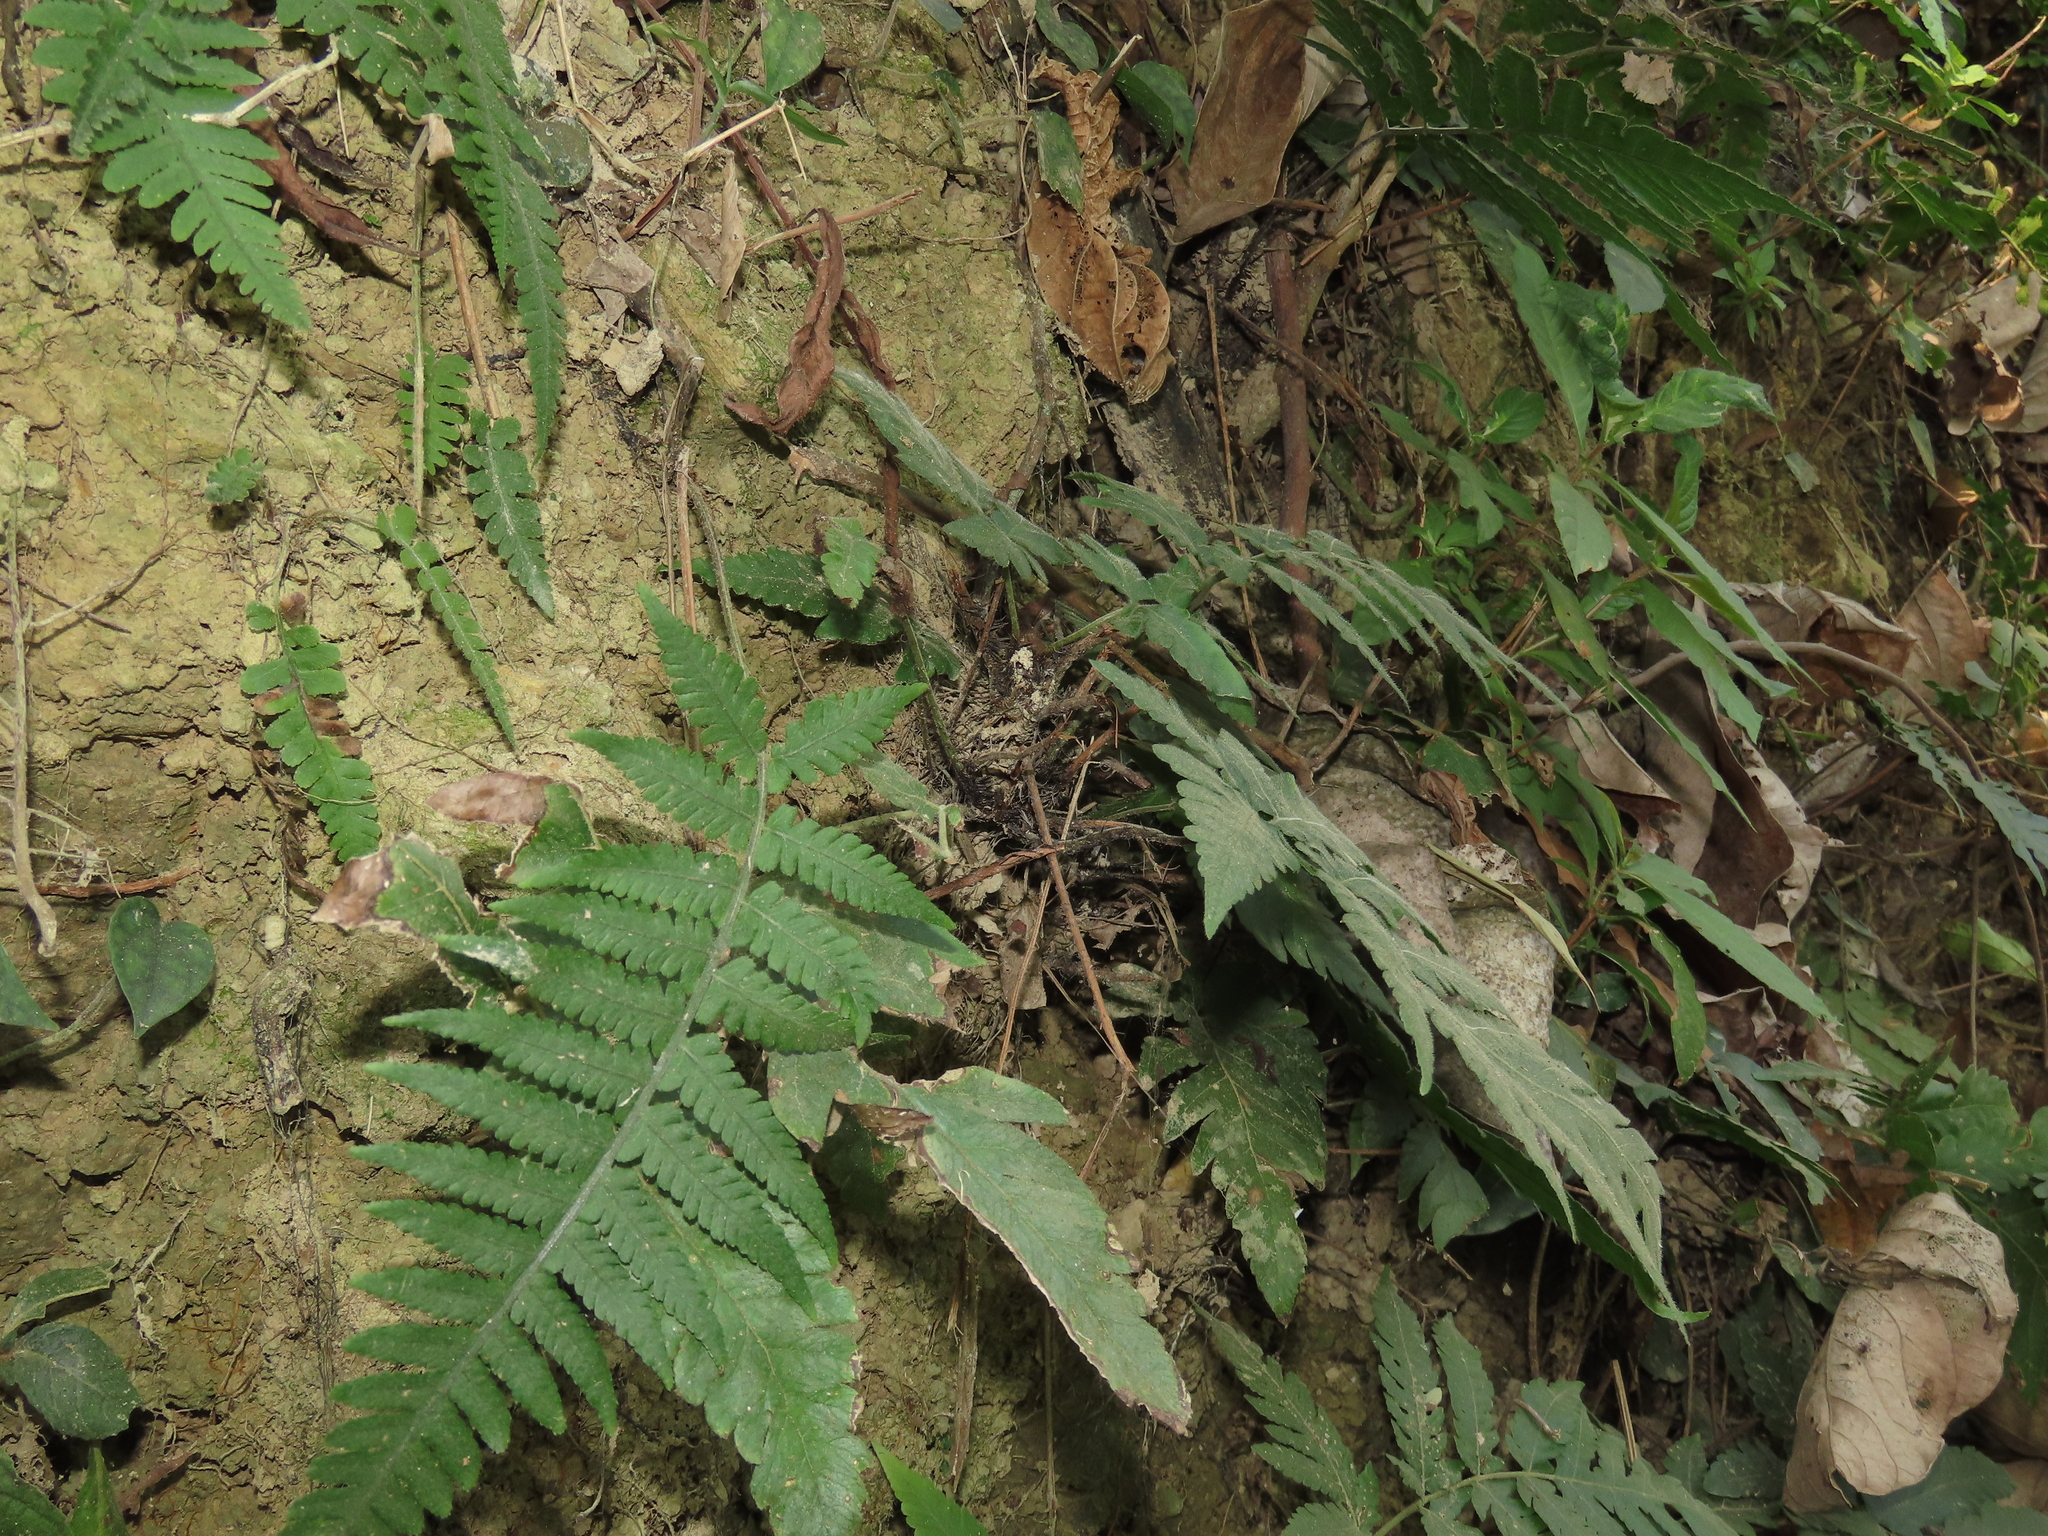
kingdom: Plantae
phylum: Tracheophyta
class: Polypodiopsida
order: Polypodiales
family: Tectariaceae
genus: Tectaria
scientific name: Tectaria fuscipes
